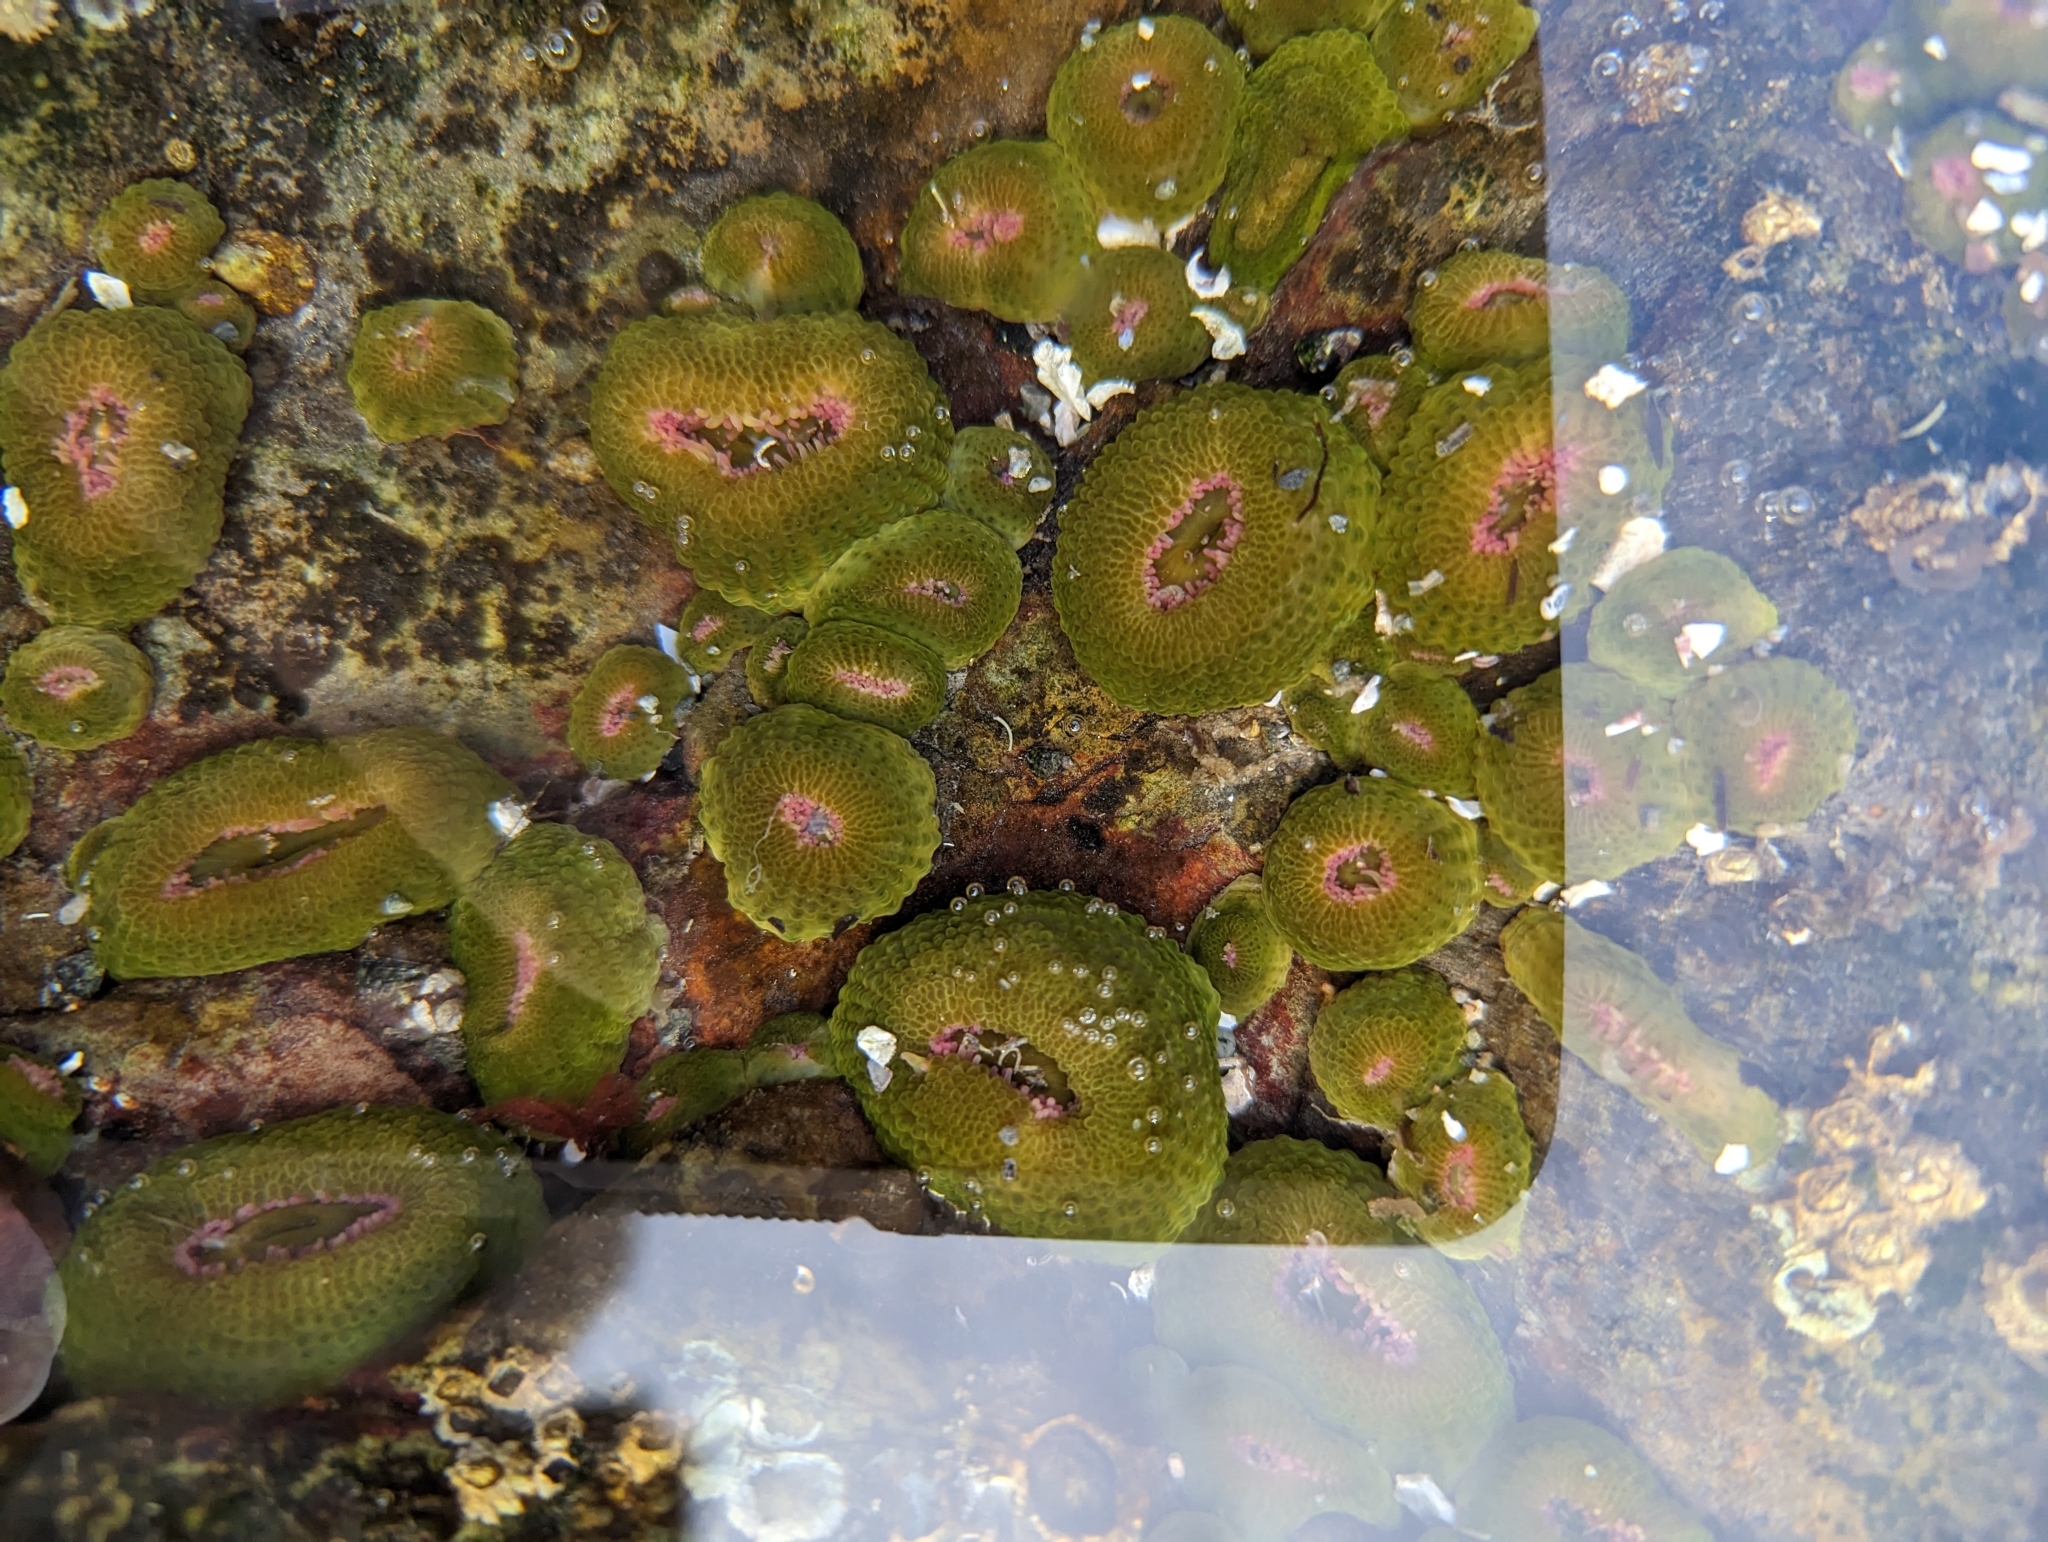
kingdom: Animalia
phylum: Cnidaria
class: Anthozoa
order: Actiniaria
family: Actiniidae
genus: Anthopleura
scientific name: Anthopleura elegantissima
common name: Clonal anemone
